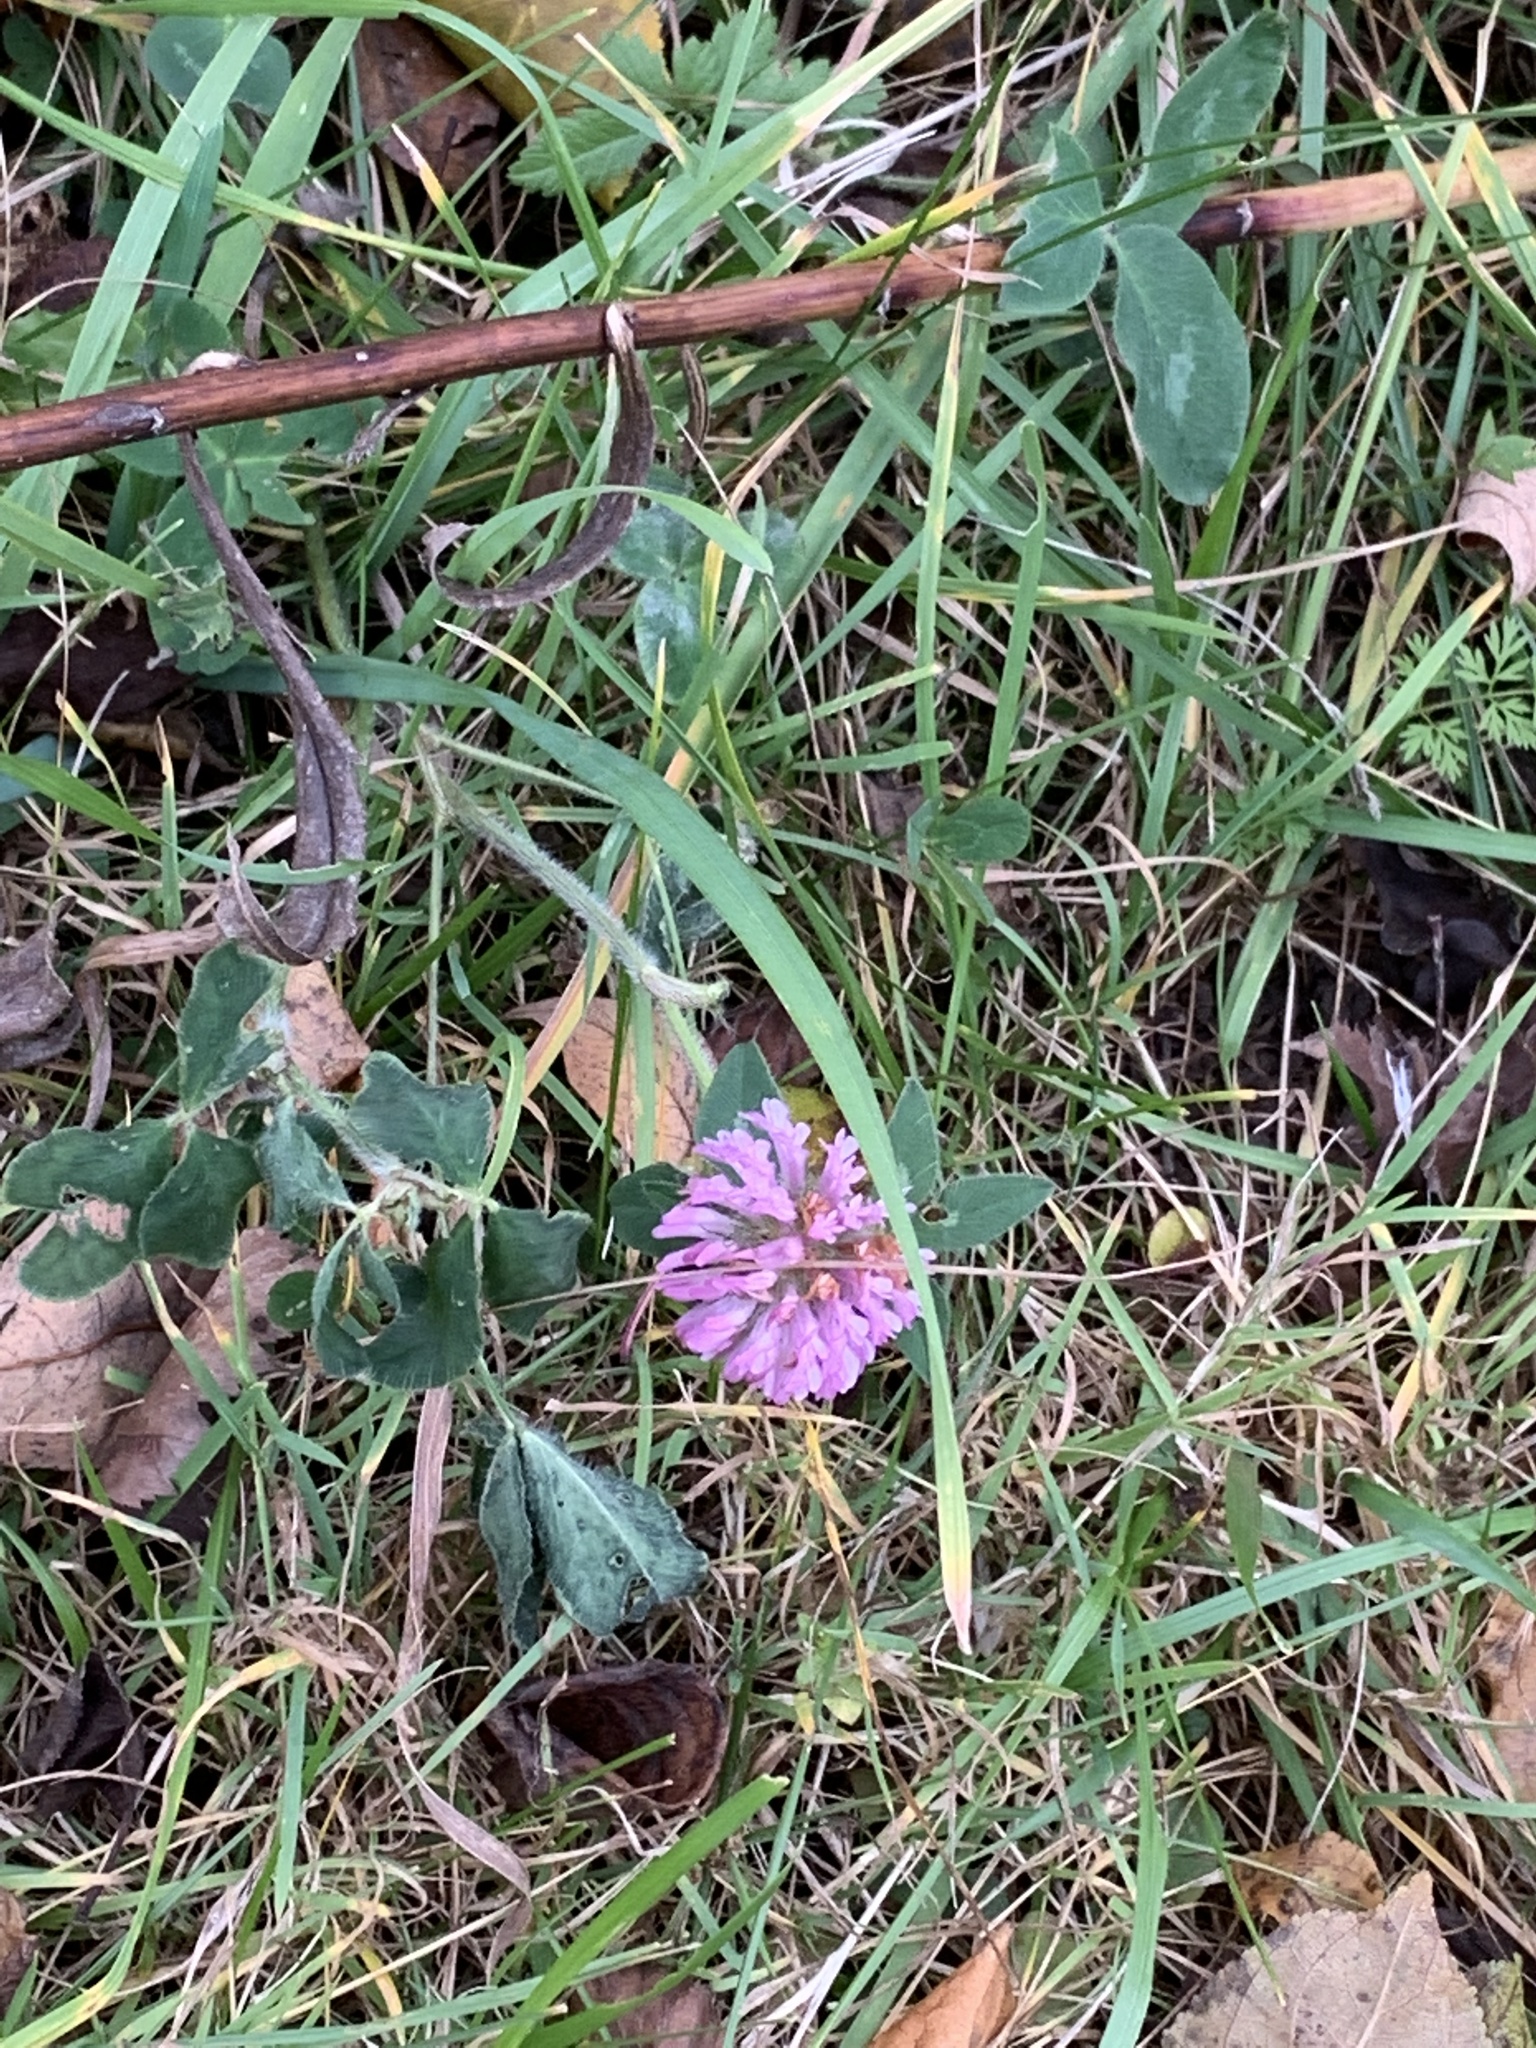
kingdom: Plantae
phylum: Tracheophyta
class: Magnoliopsida
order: Fabales
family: Fabaceae
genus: Trifolium
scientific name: Trifolium pratense
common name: Red clover
